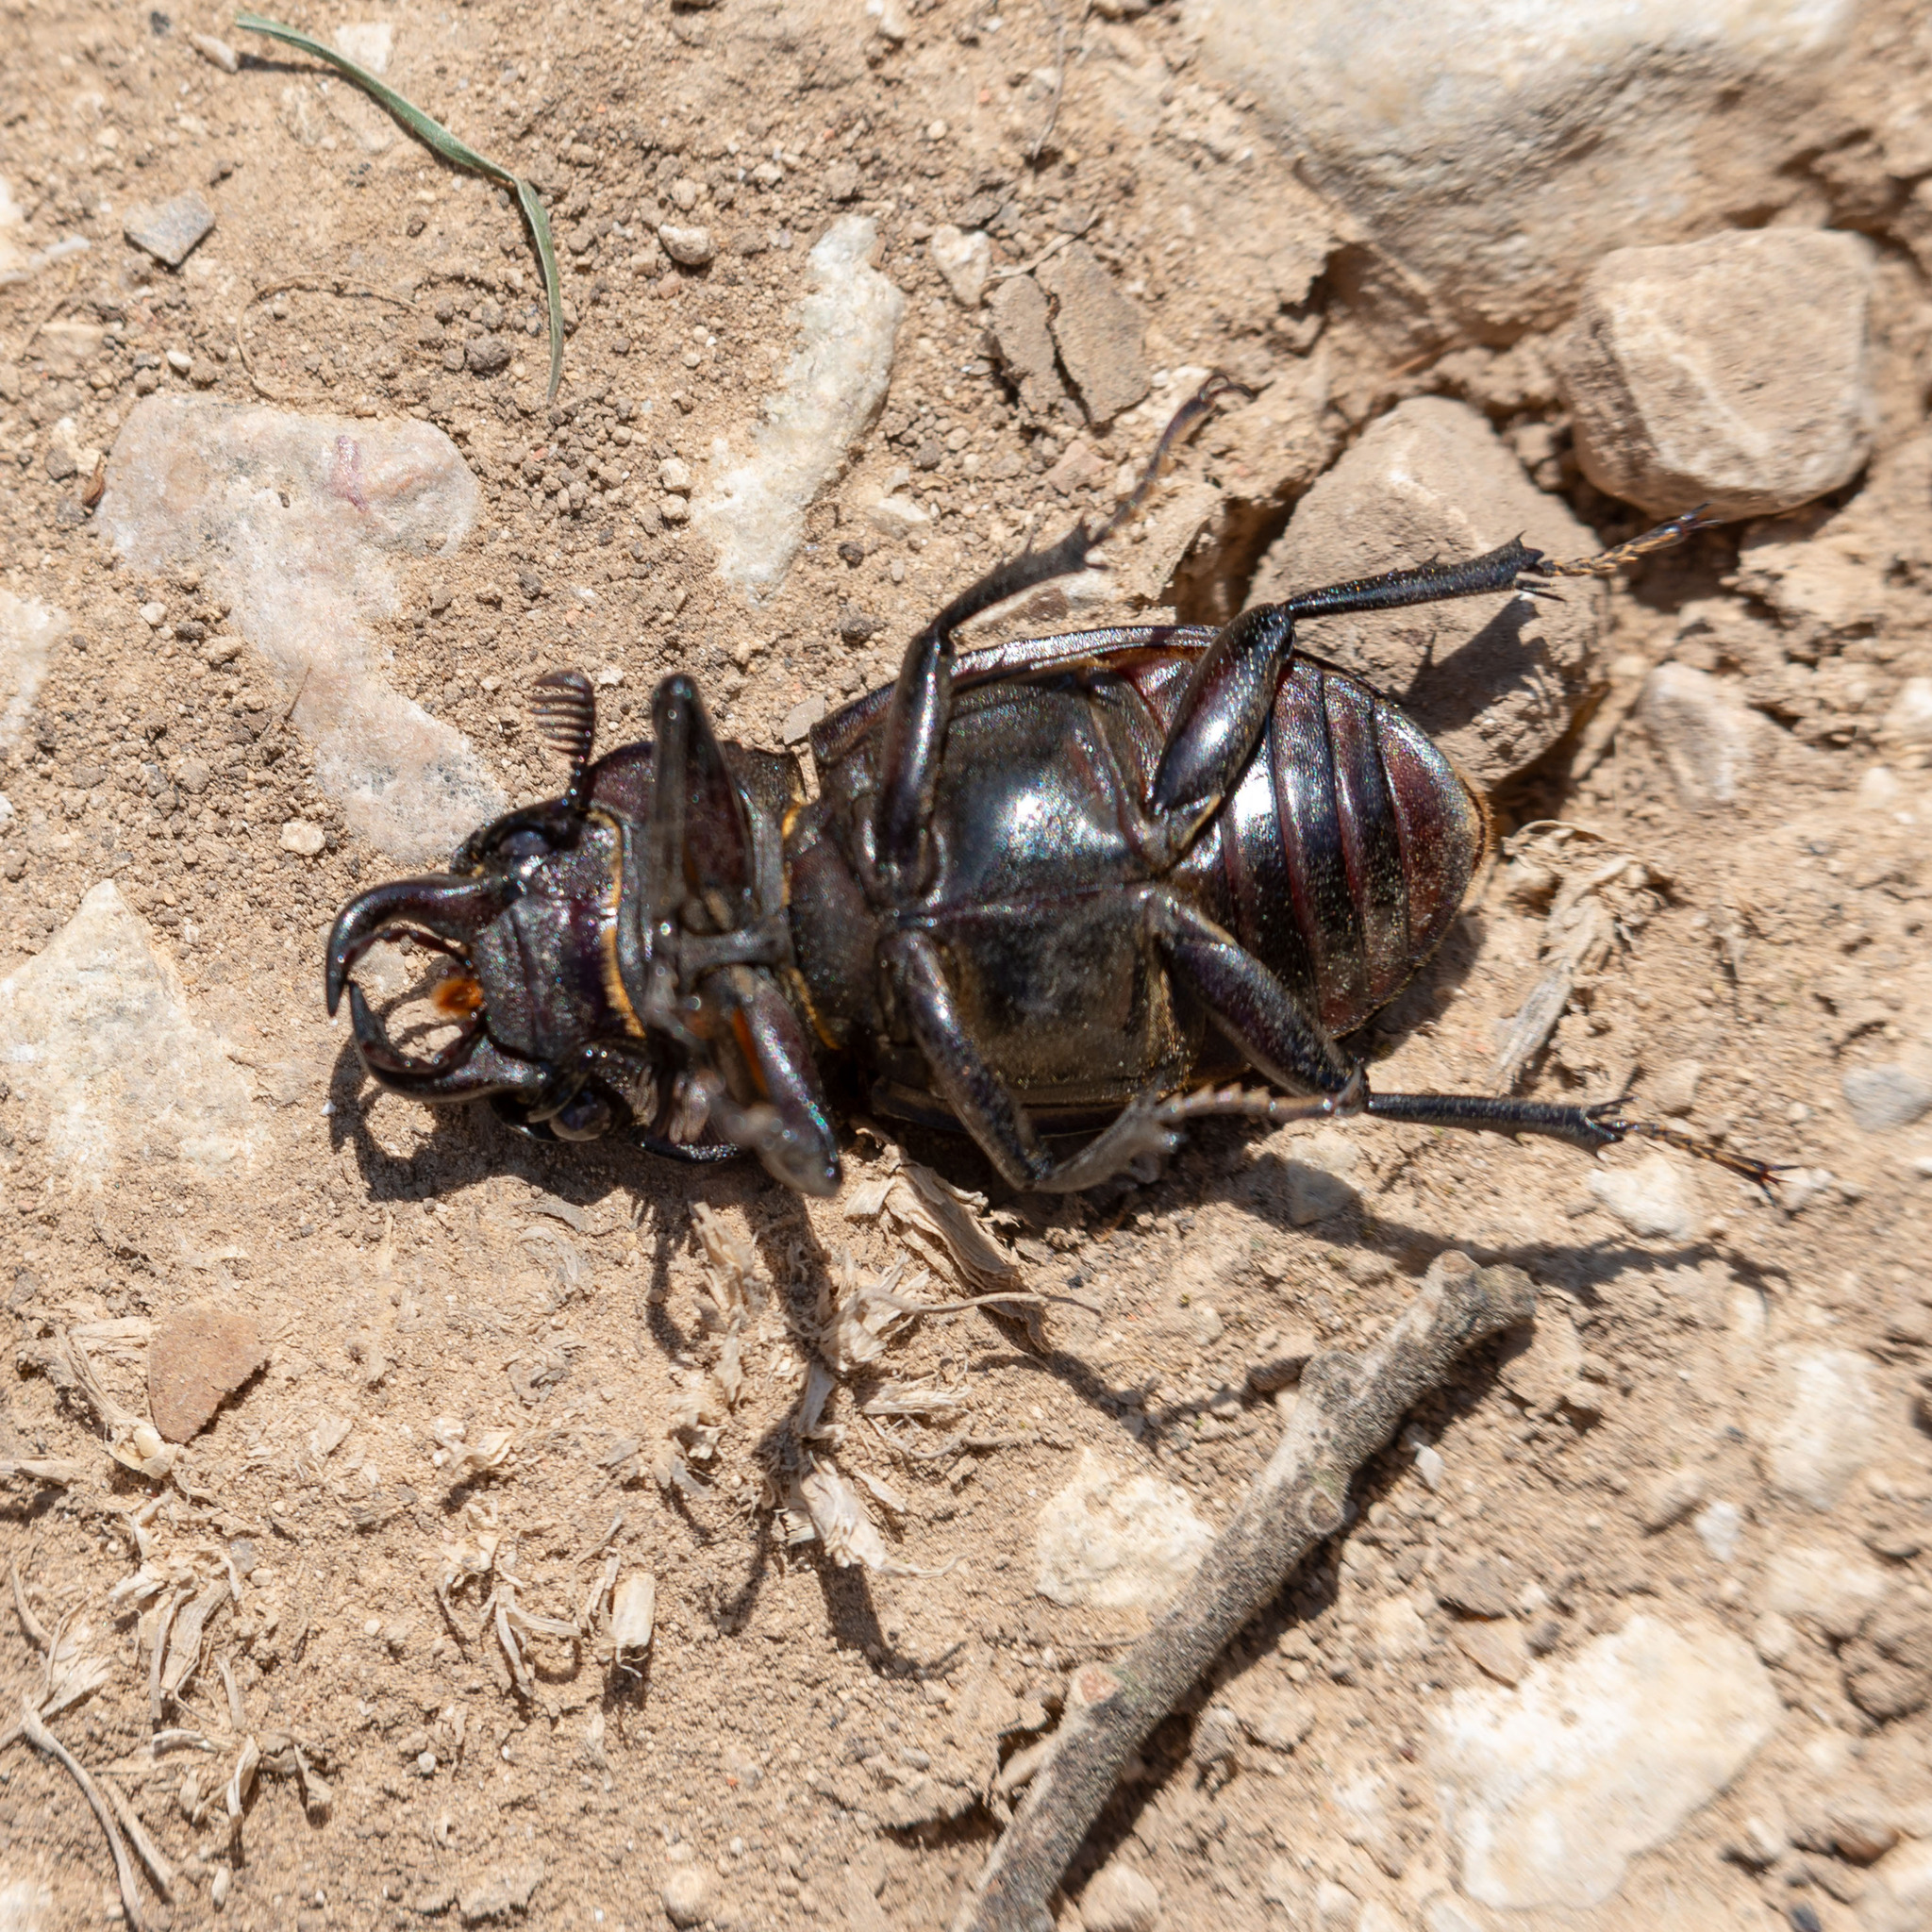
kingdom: Animalia
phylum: Arthropoda
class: Insecta
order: Coleoptera
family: Lucanidae
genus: Lucanus
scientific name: Lucanus barbarossa
